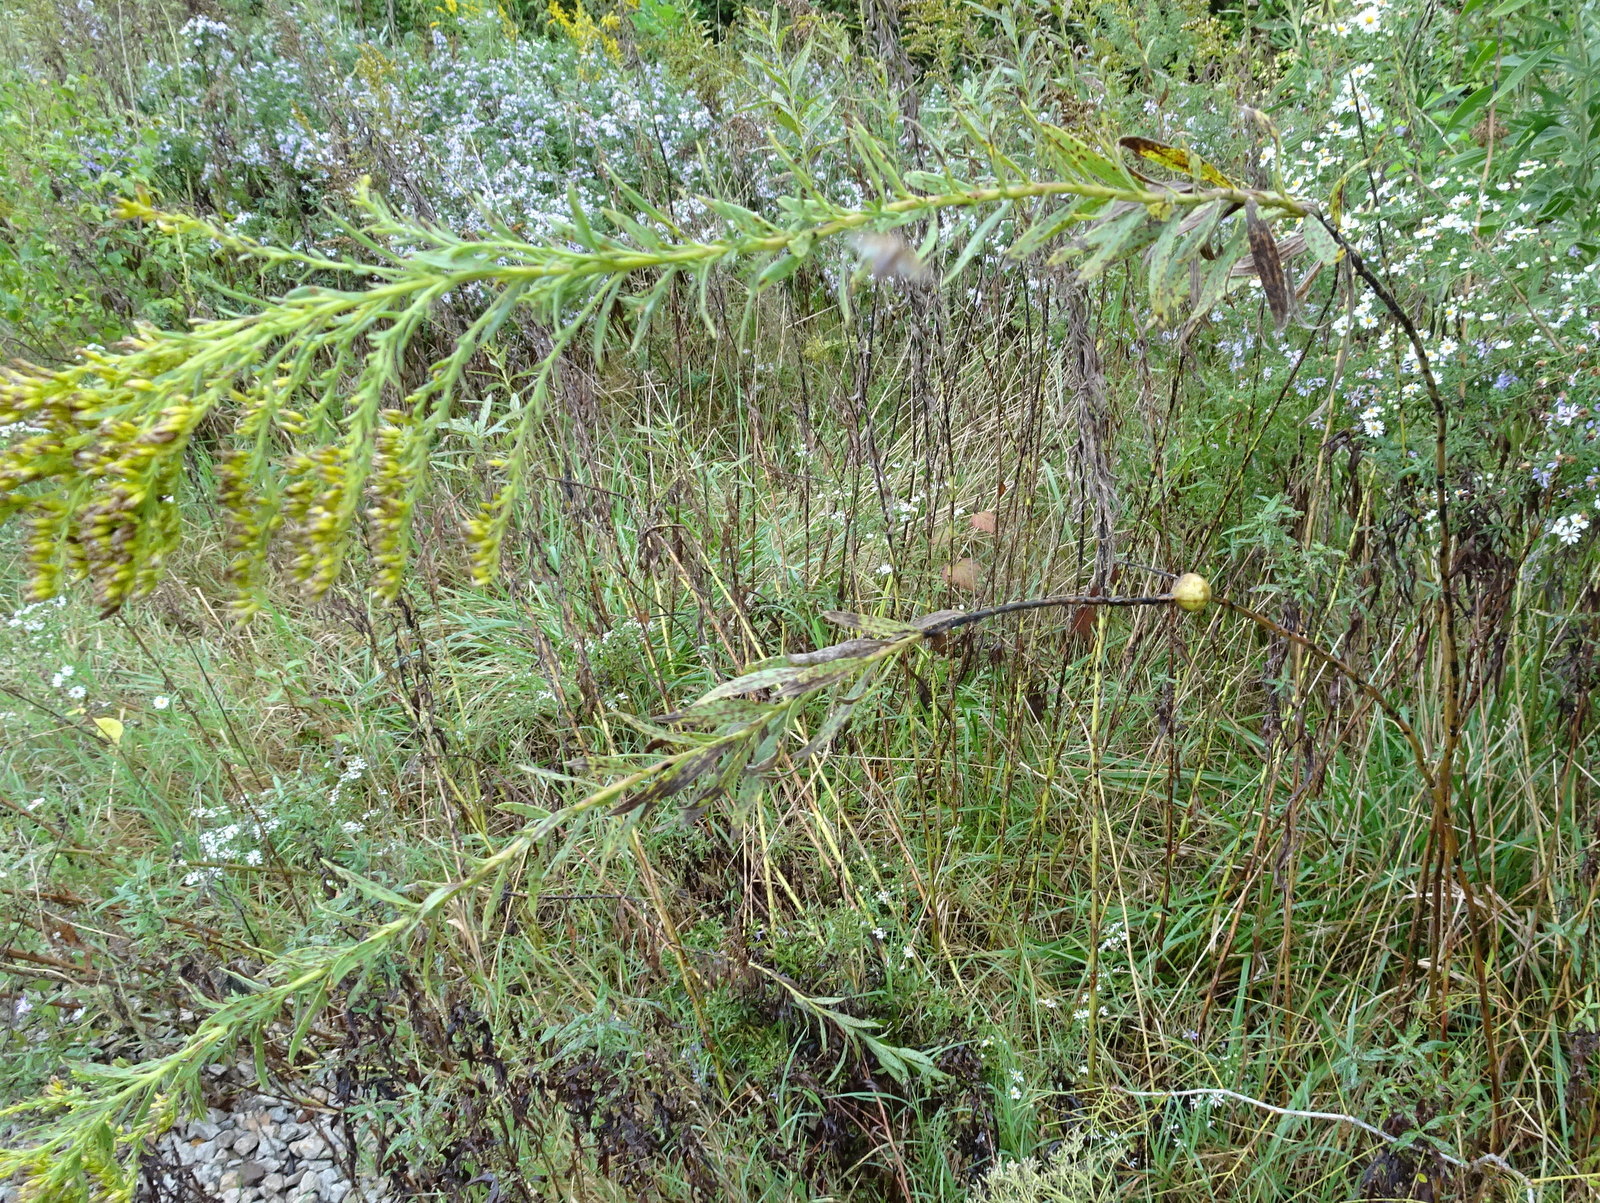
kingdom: Animalia
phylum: Arthropoda
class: Insecta
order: Diptera
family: Tephritidae
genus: Eurosta
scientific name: Eurosta solidaginis
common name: Goldenrod gall fly
